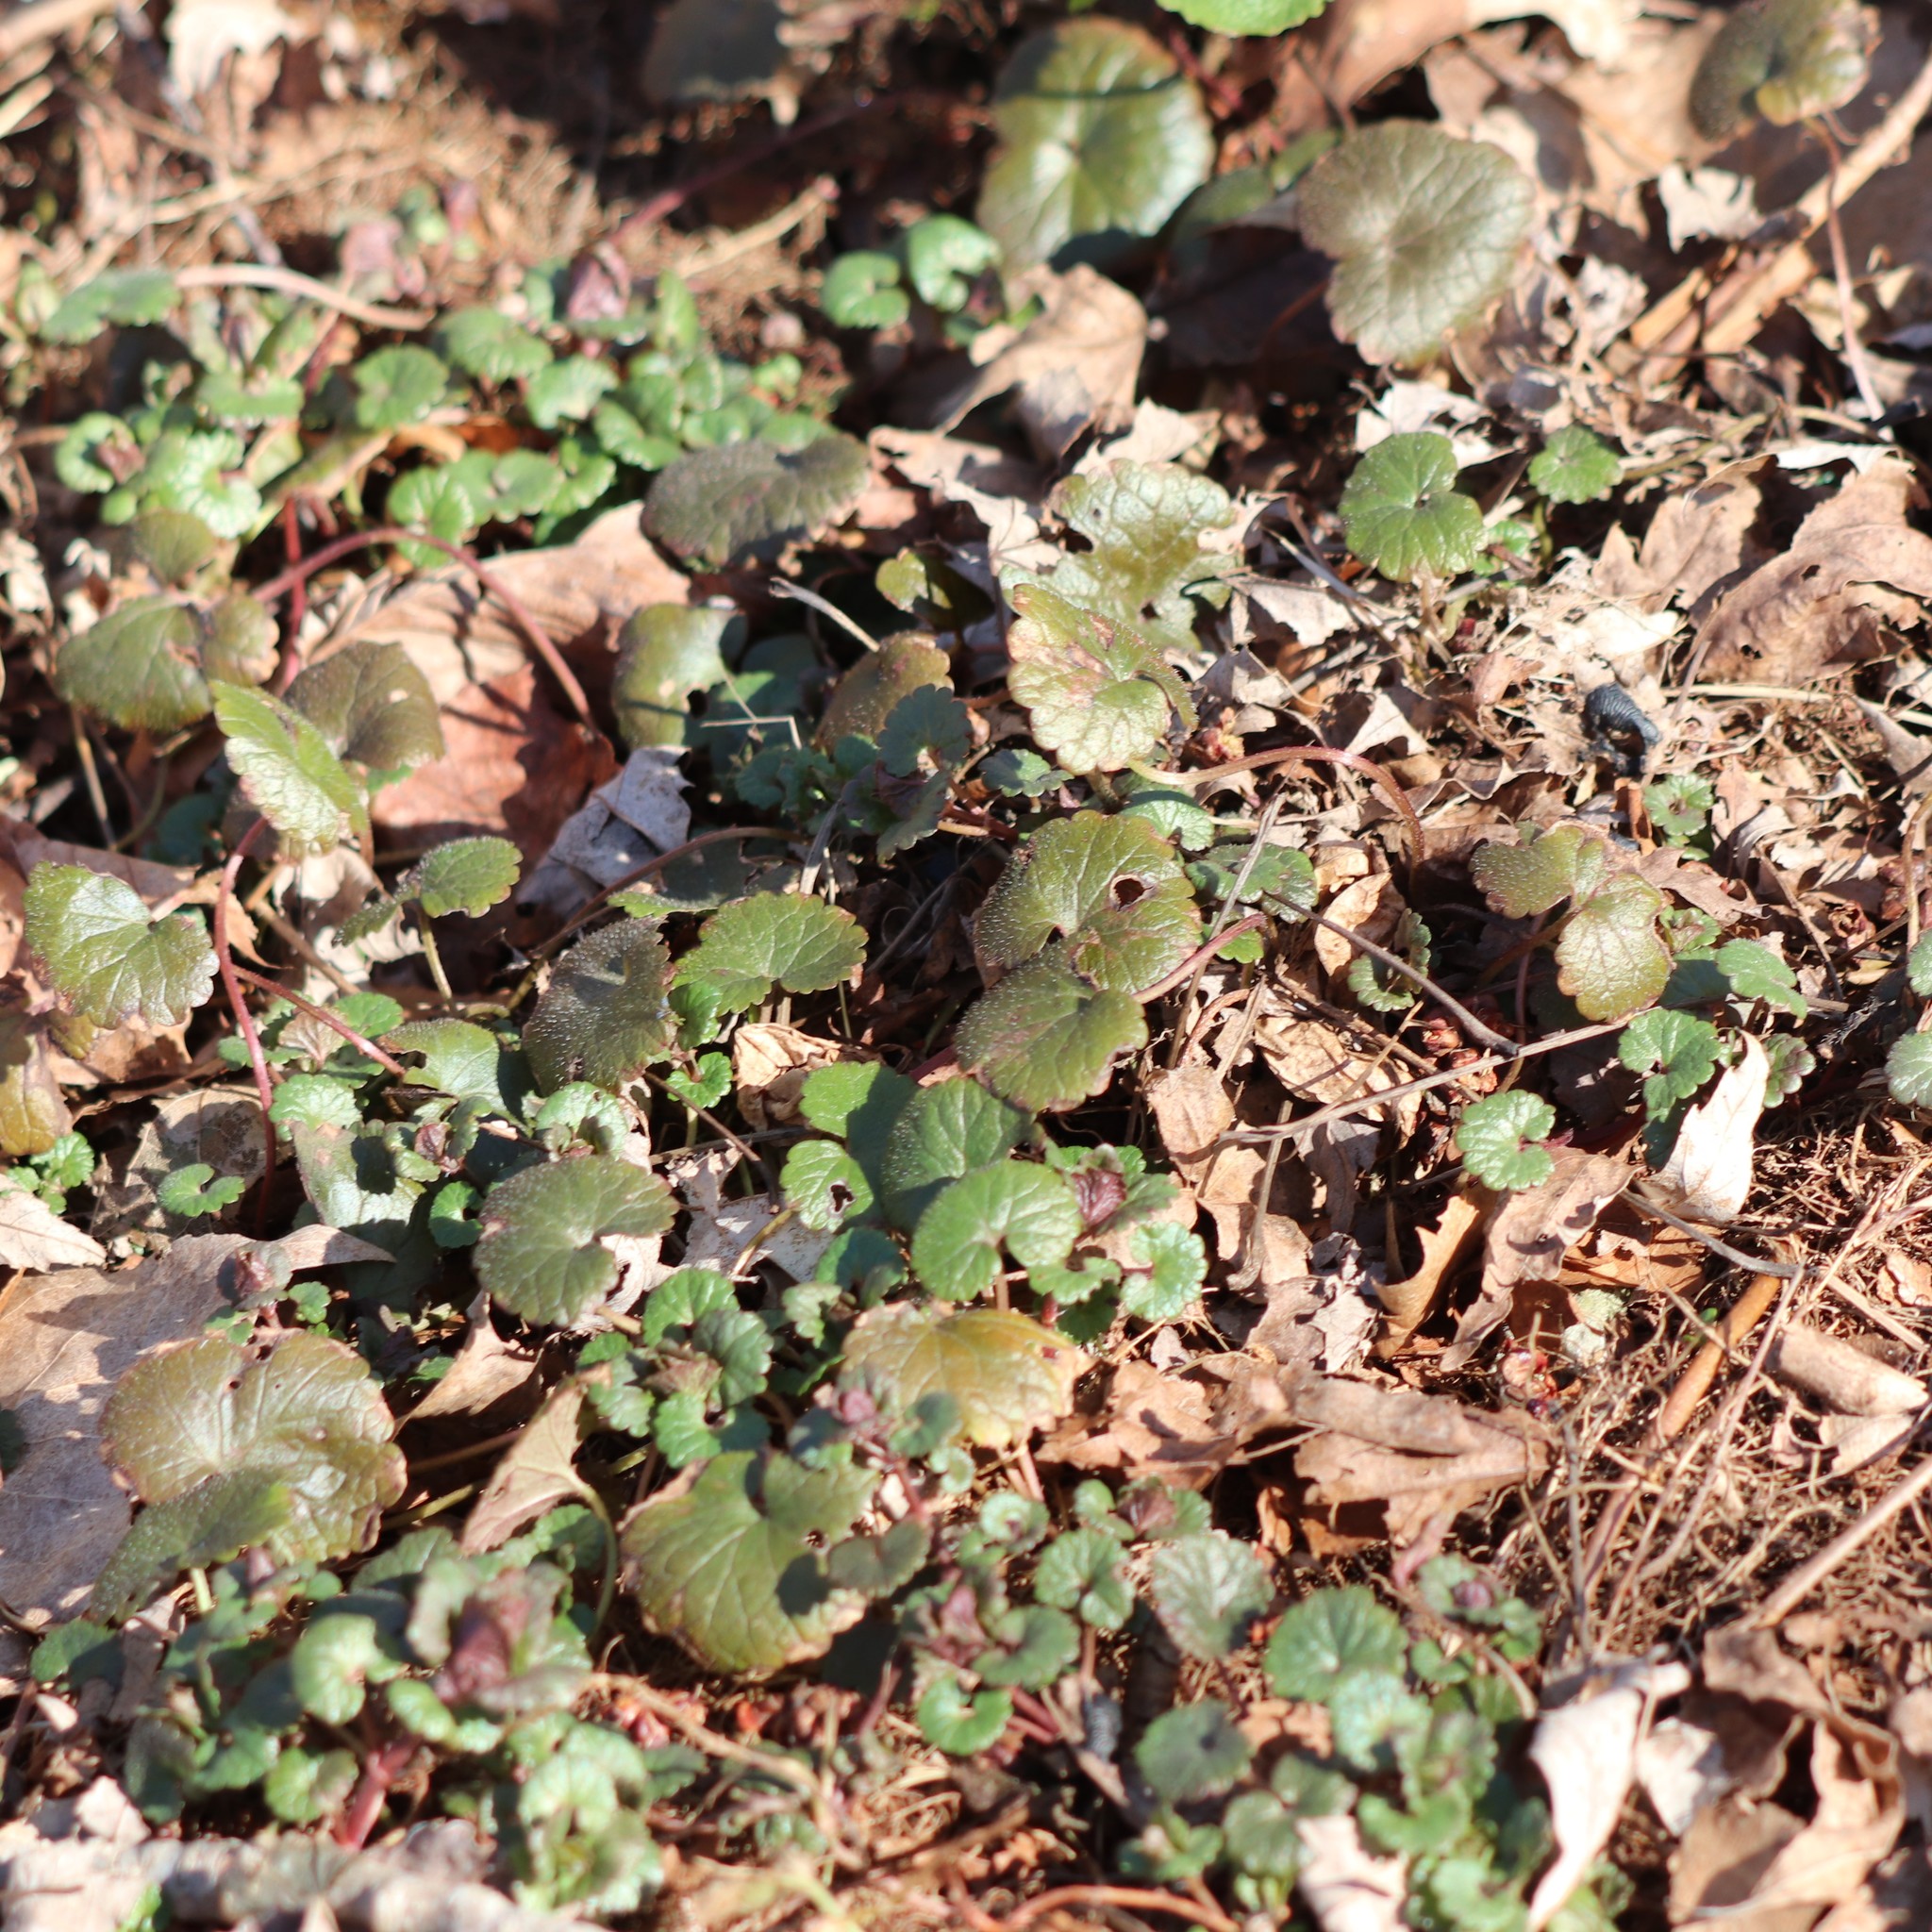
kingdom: Plantae
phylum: Tracheophyta
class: Magnoliopsida
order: Lamiales
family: Lamiaceae
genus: Glechoma
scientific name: Glechoma hederacea
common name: Ground ivy
